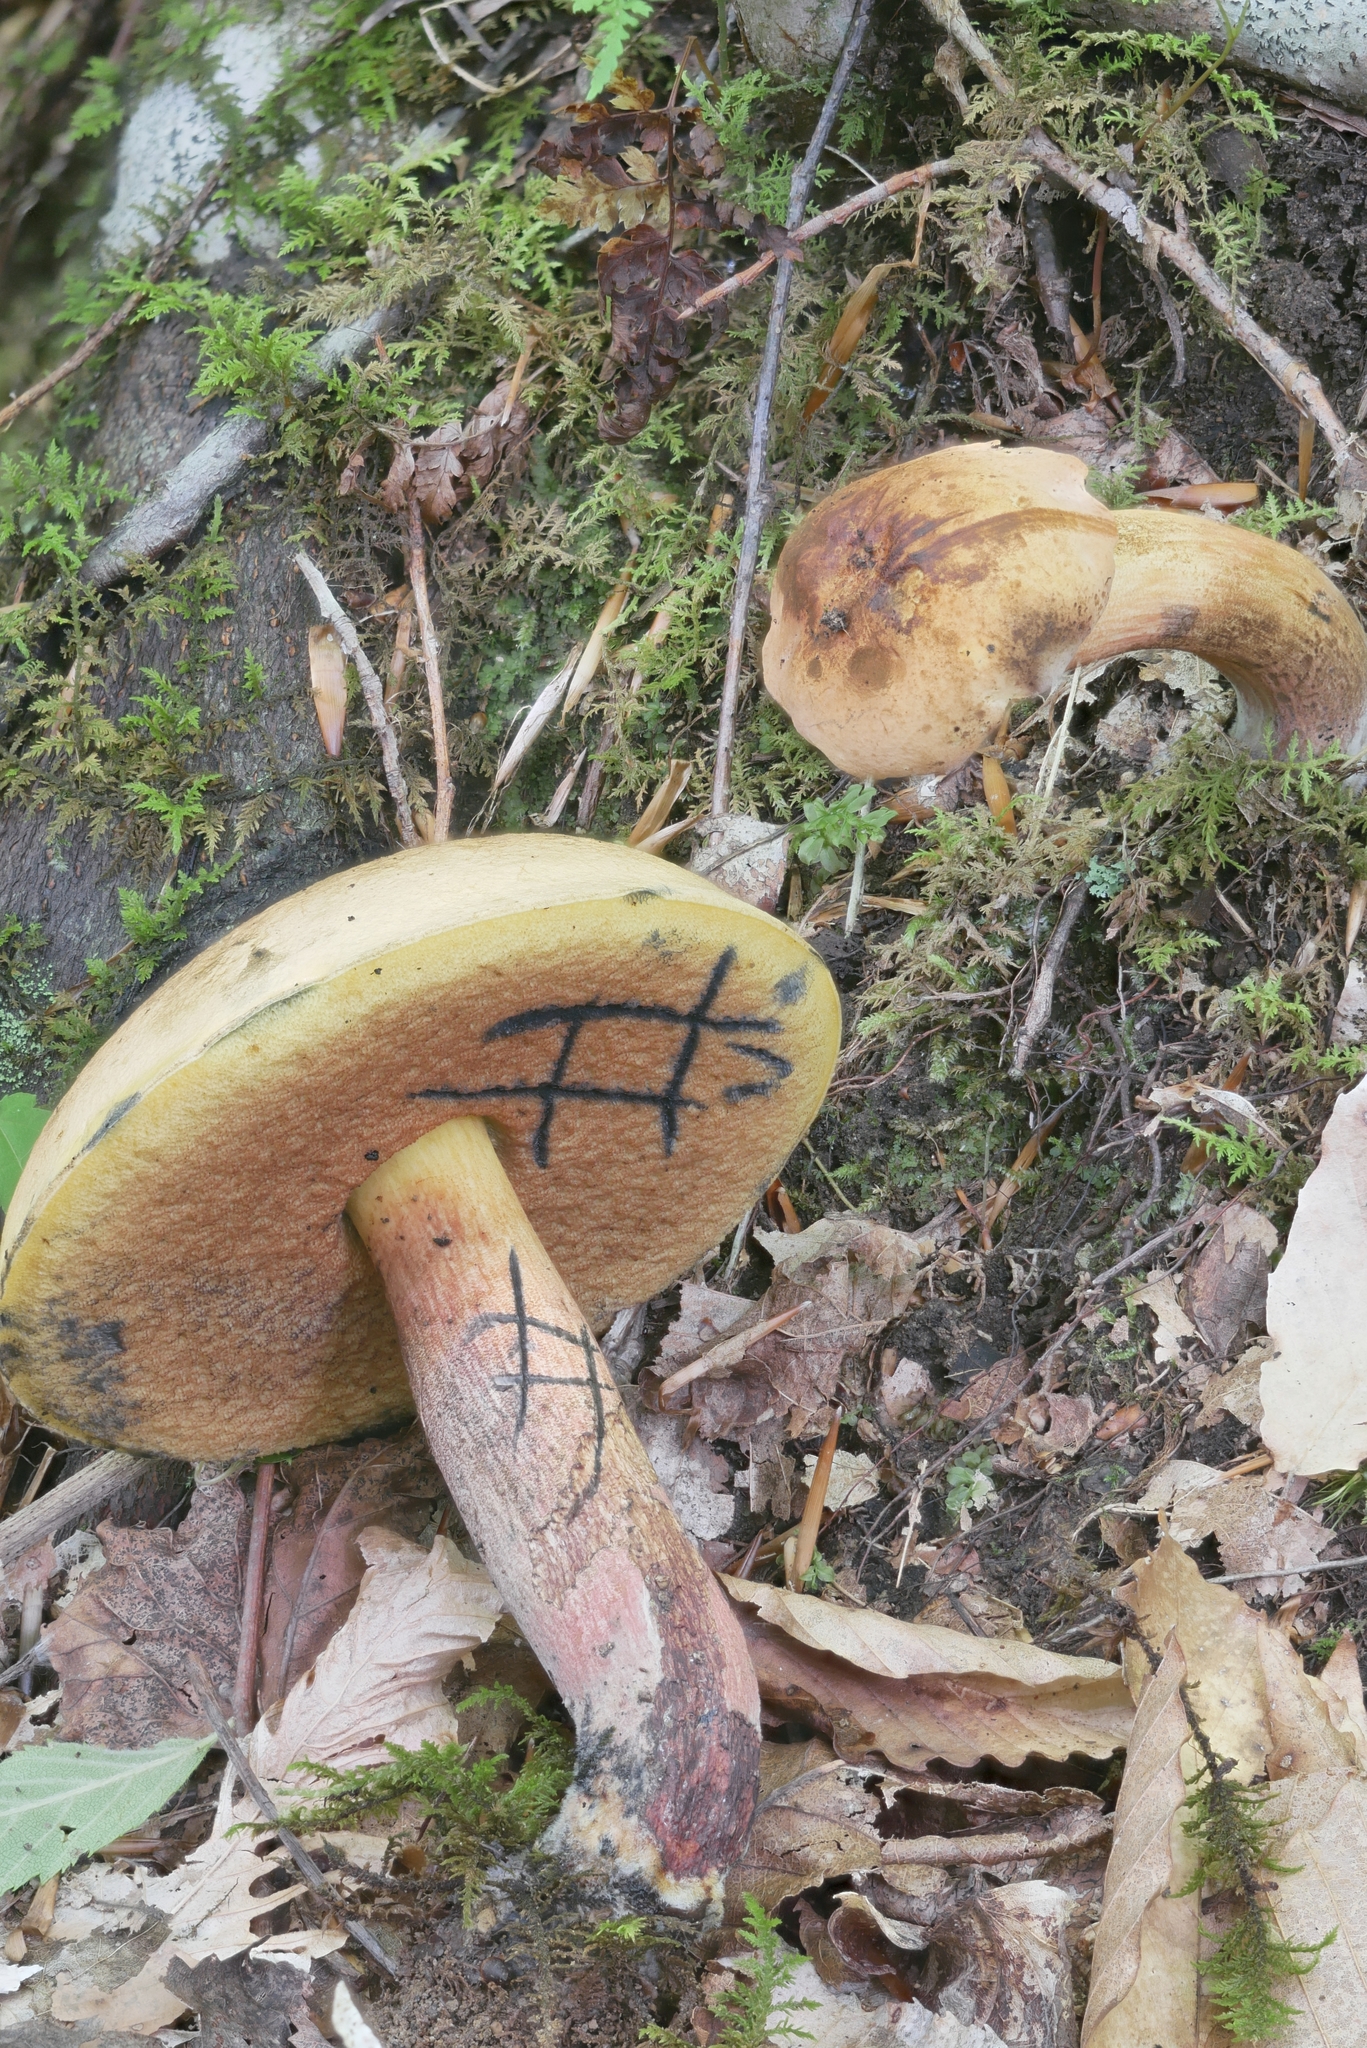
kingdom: Fungi
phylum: Basidiomycota
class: Agaricomycetes
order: Boletales
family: Boletaceae
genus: Boletus
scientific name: Boletus subvelutipes
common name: Red-mouth bolete
